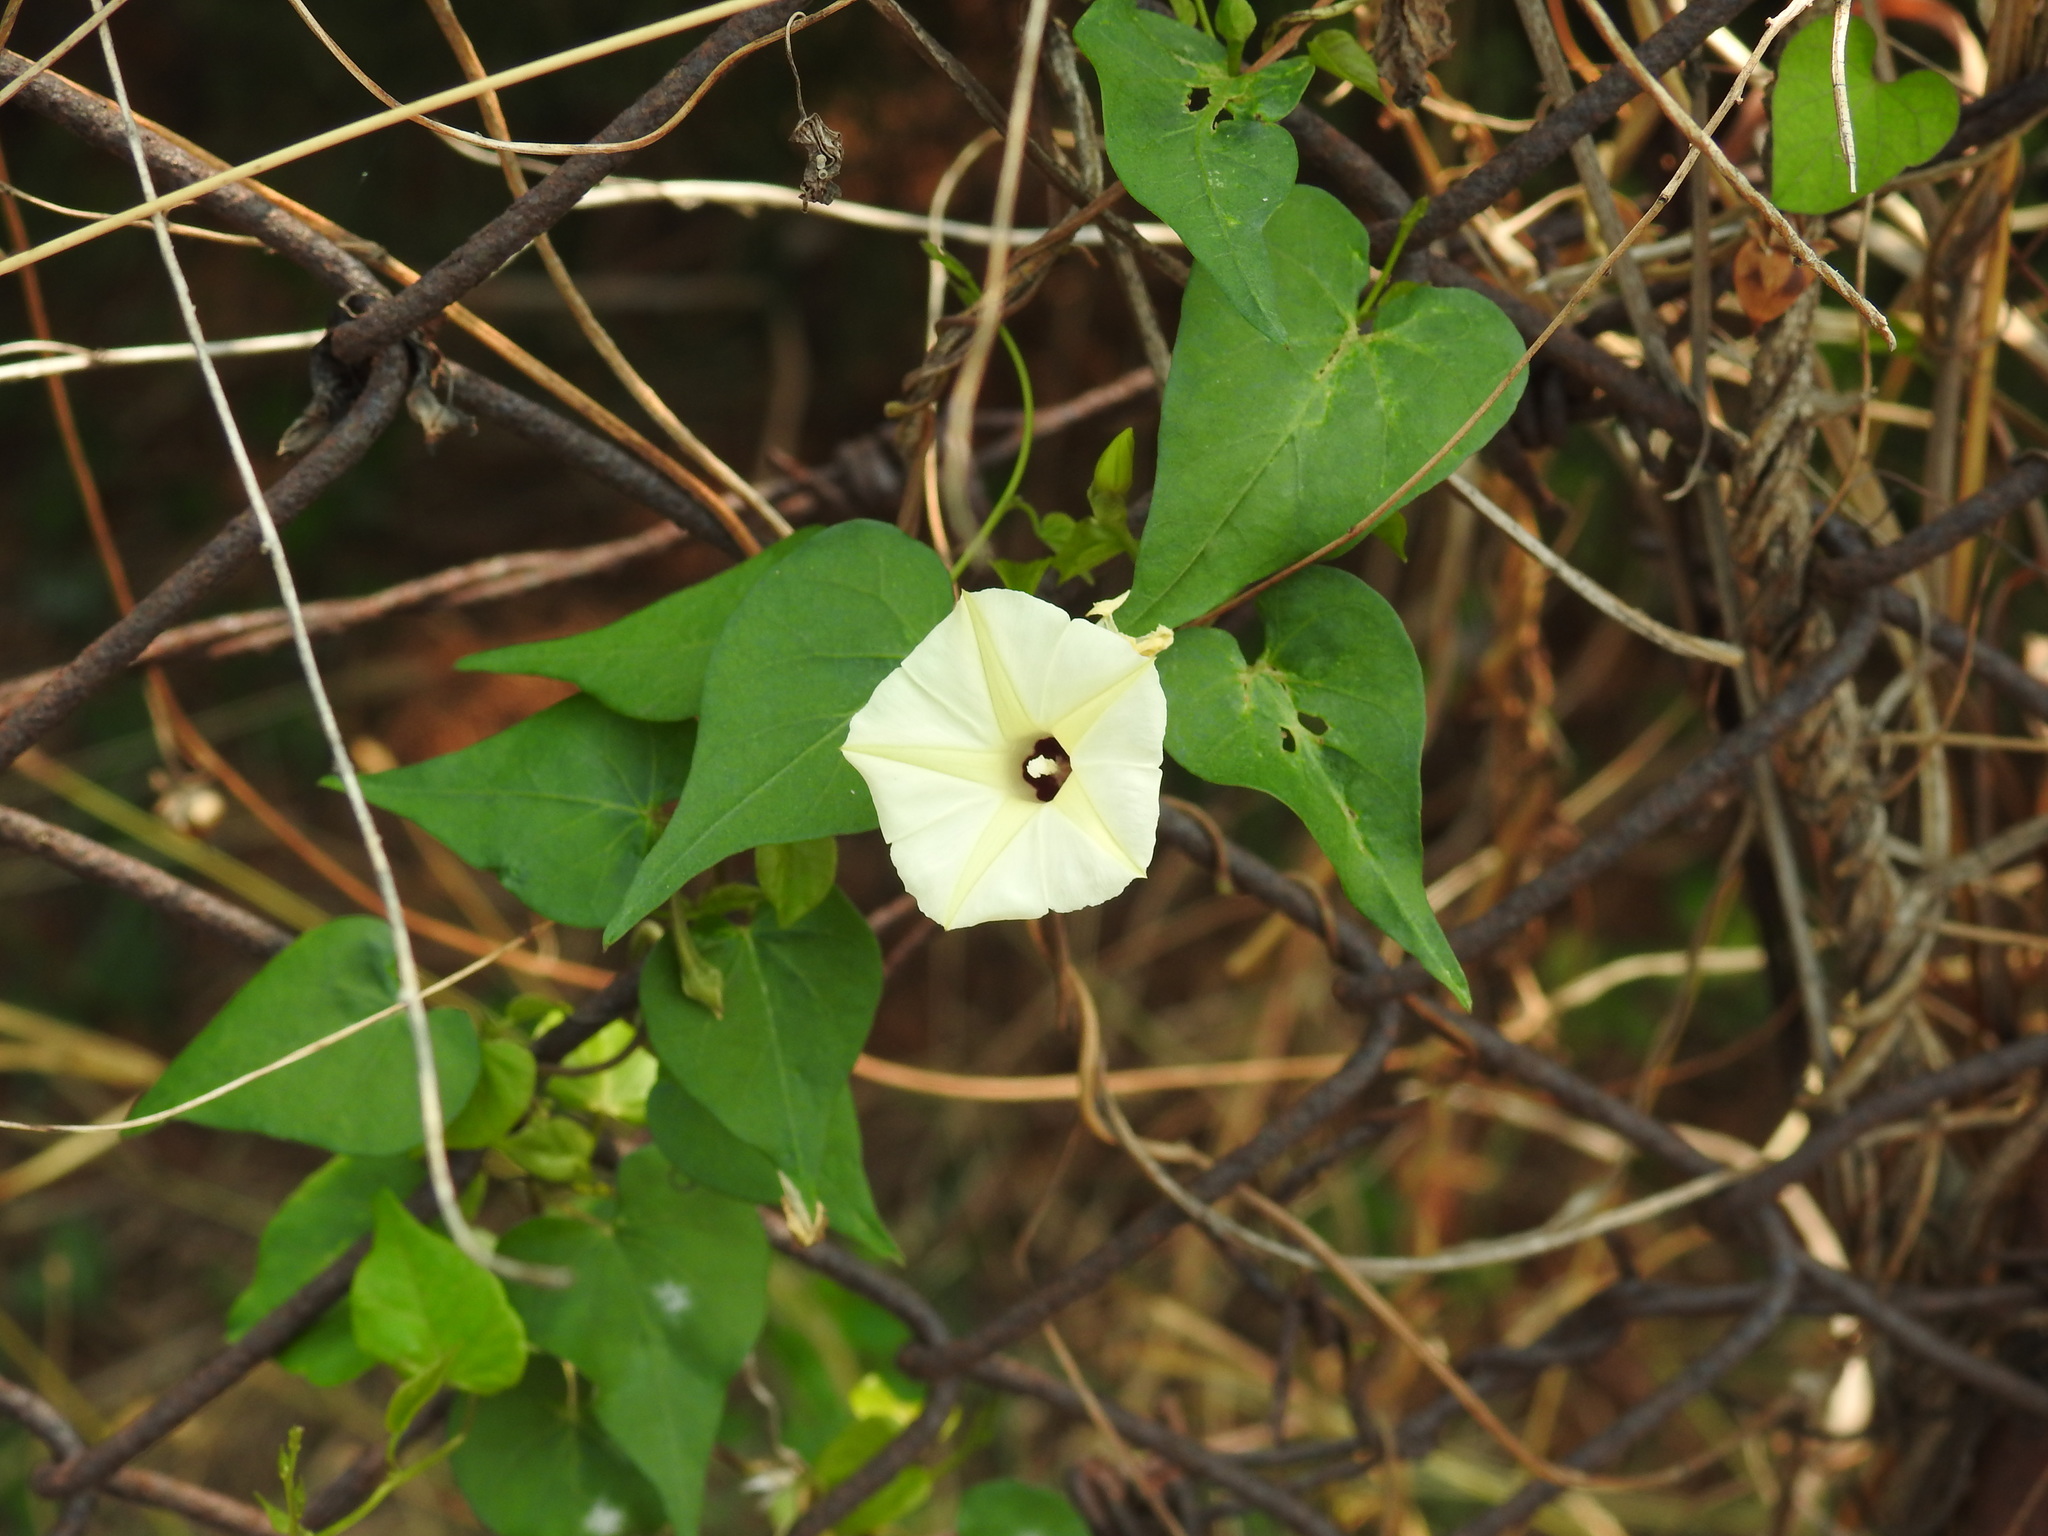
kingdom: Plantae
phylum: Tracheophyta
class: Magnoliopsida
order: Solanales
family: Convolvulaceae
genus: Ipomoea
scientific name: Ipomoea obscura
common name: Obscure morning-glory
